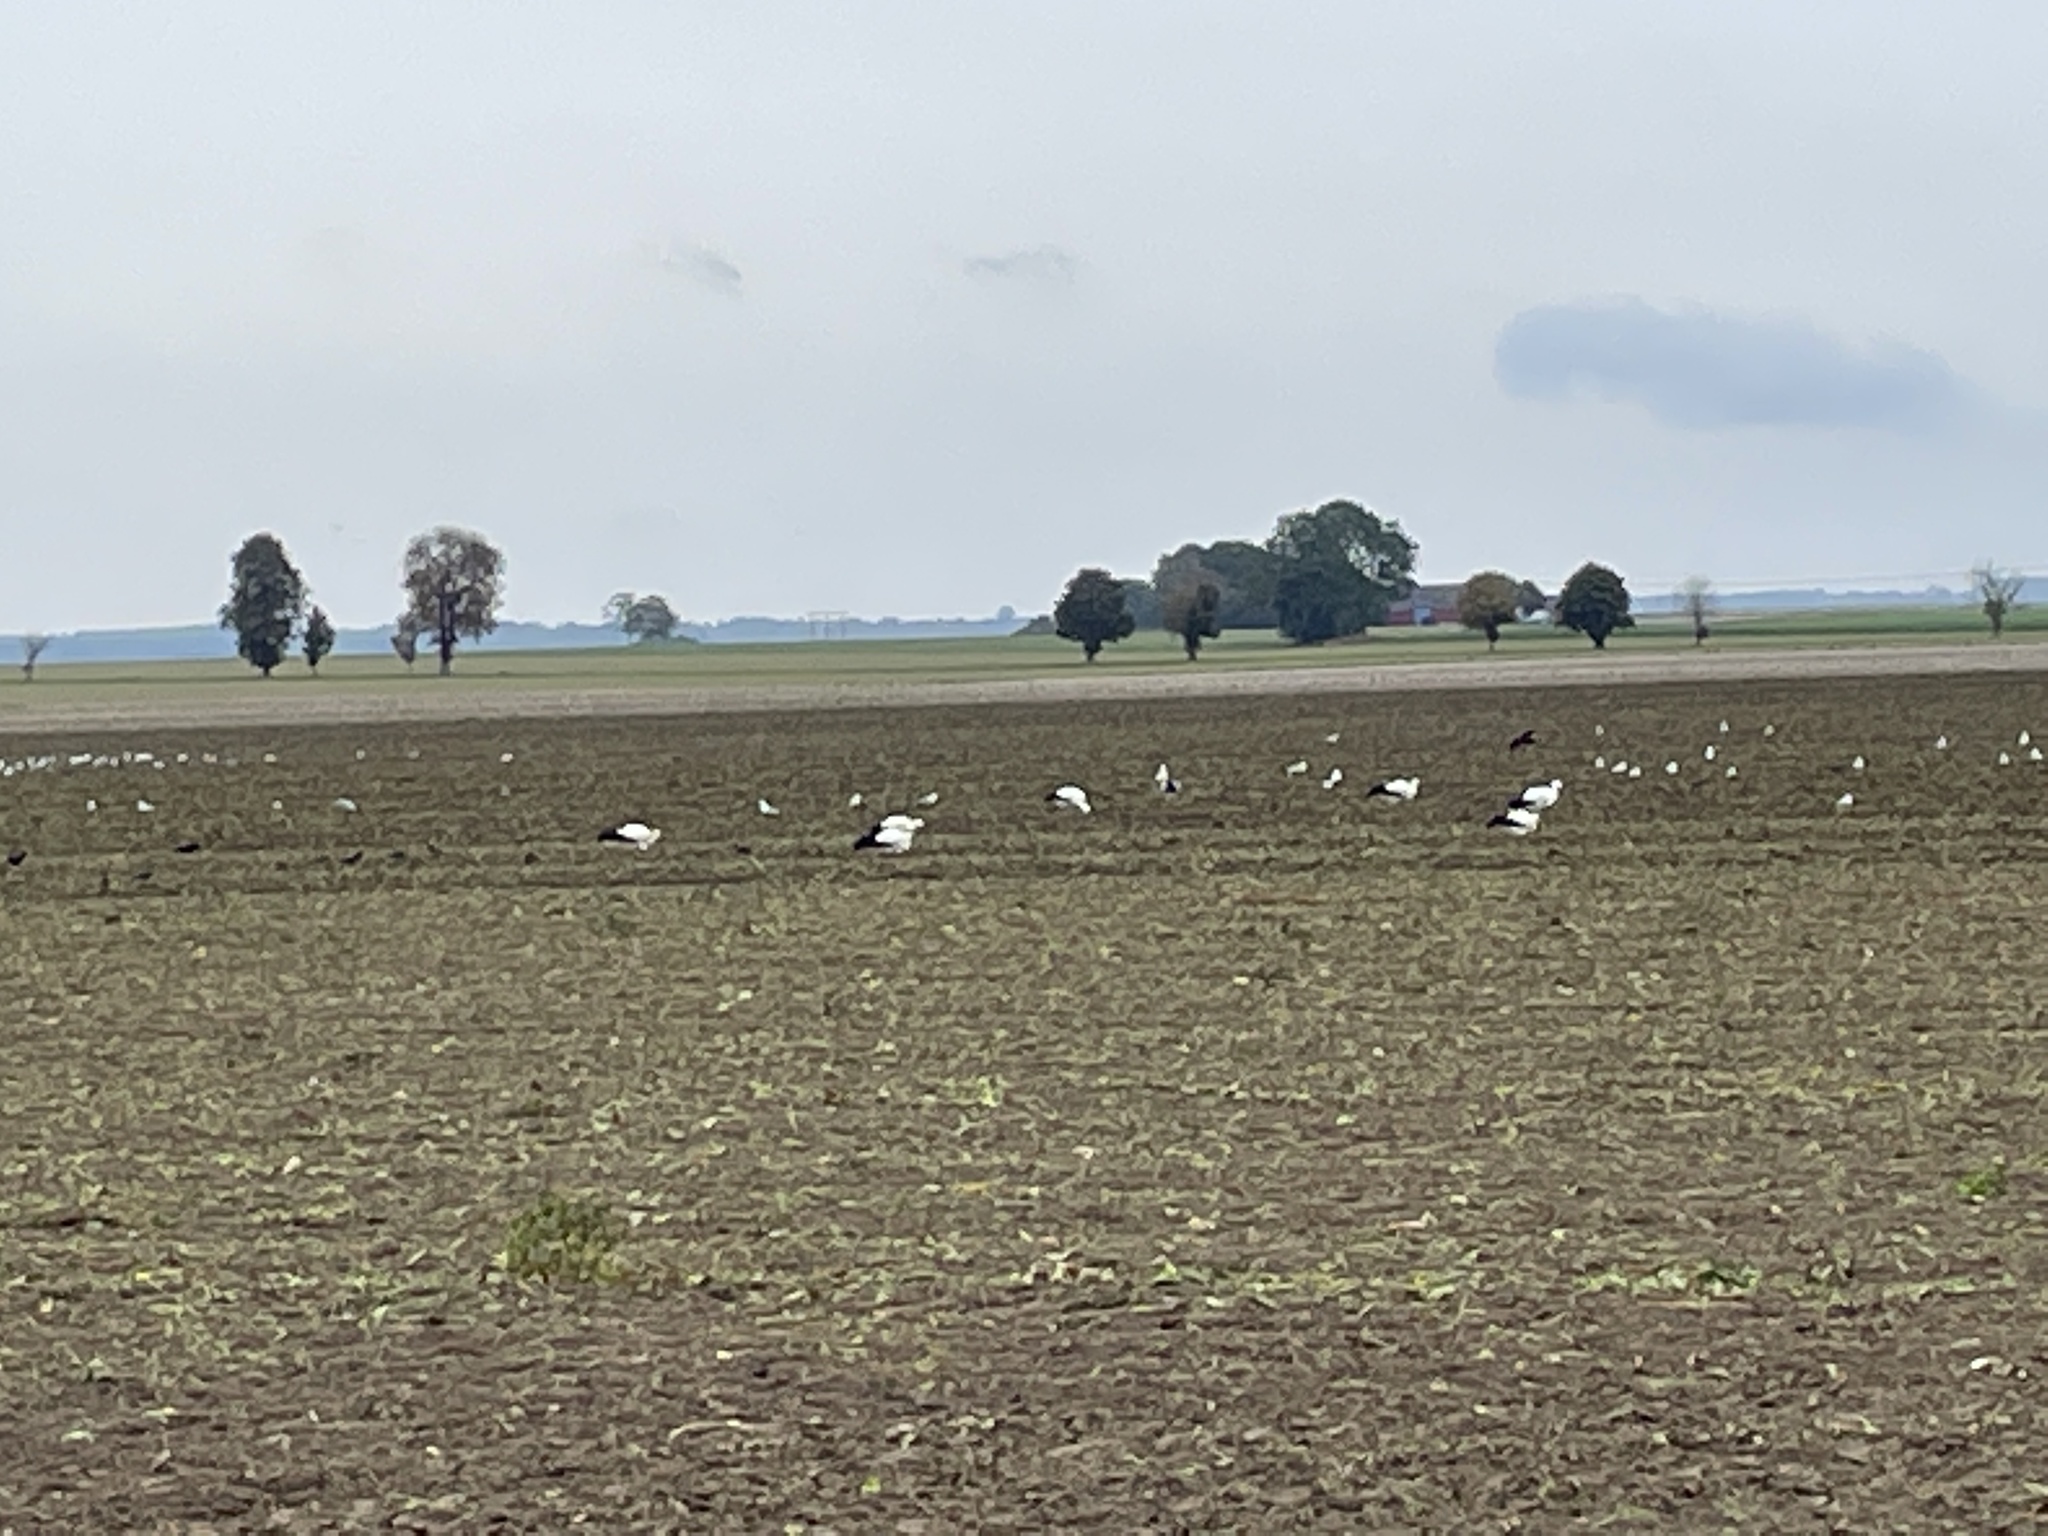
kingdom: Animalia
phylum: Chordata
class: Aves
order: Ciconiiformes
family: Ciconiidae
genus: Ciconia
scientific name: Ciconia ciconia
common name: White stork
